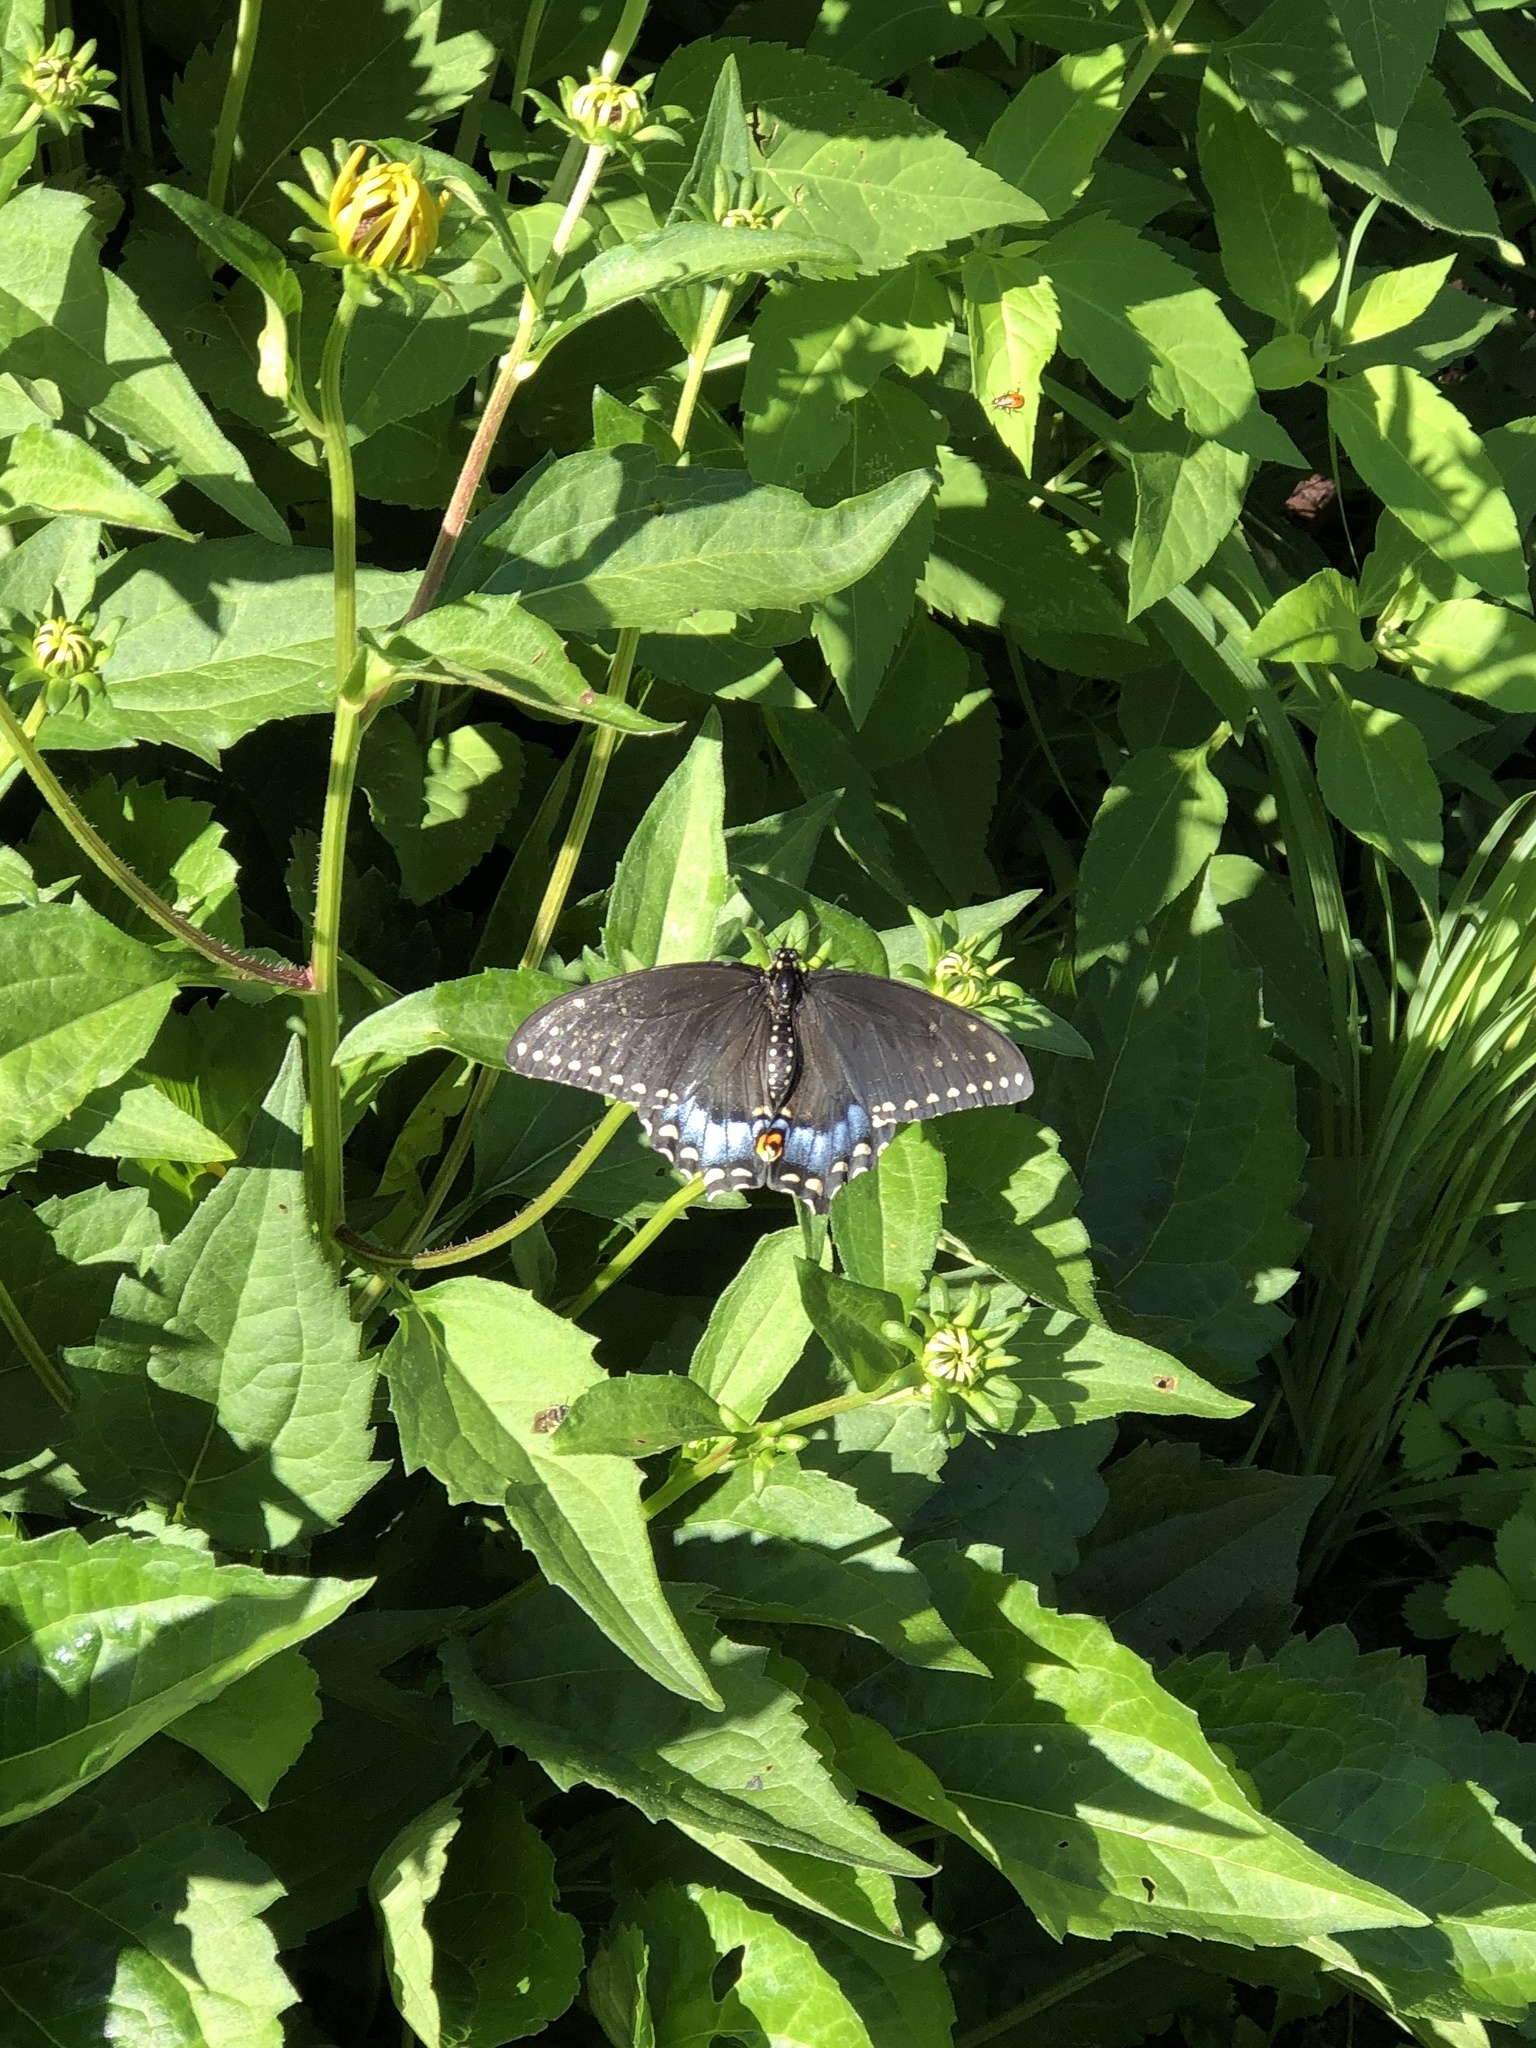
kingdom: Animalia
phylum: Arthropoda
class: Insecta
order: Lepidoptera
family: Papilionidae
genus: Papilio
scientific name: Papilio polyxenes
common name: Black swallowtail
